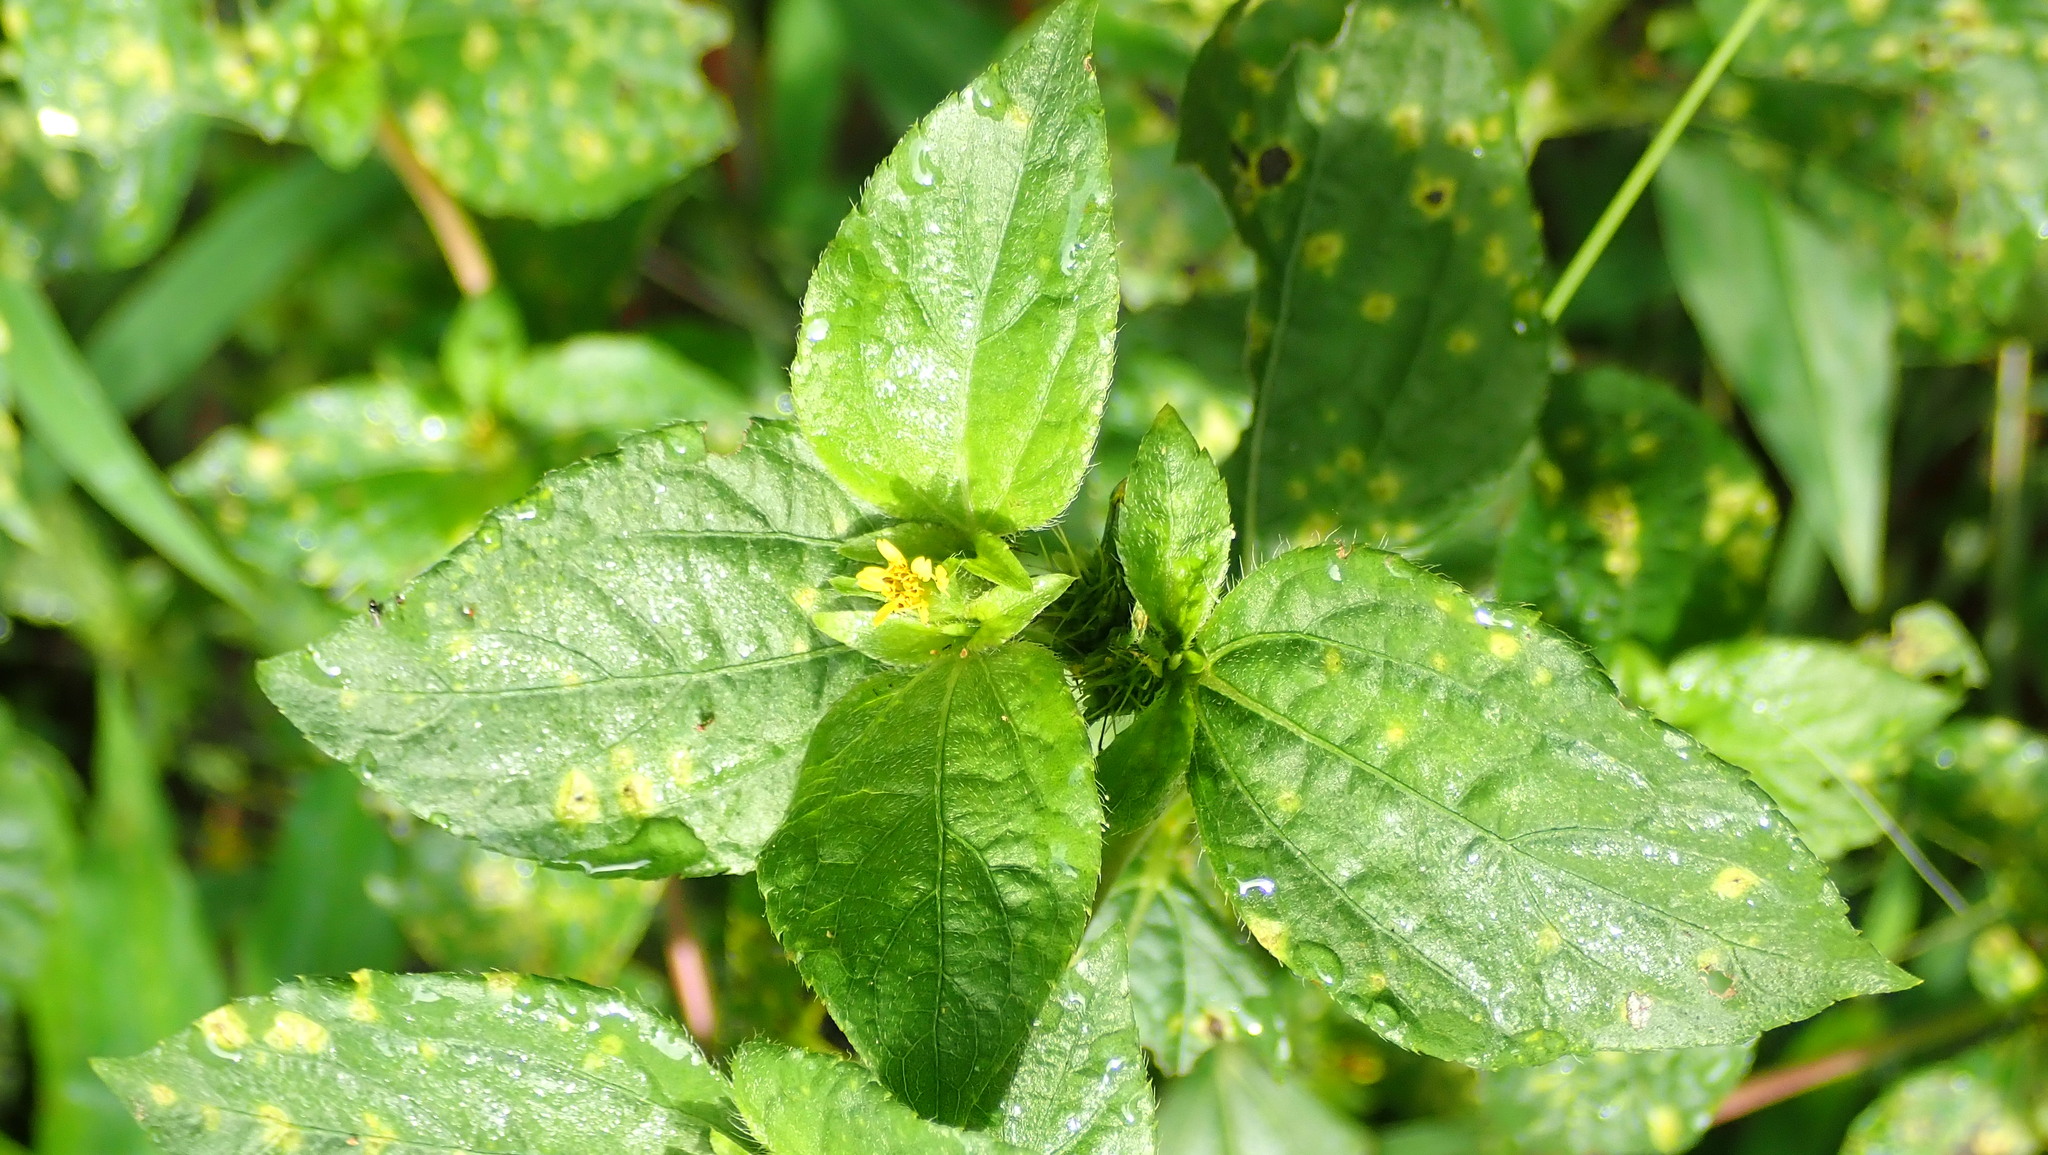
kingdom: Plantae
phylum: Tracheophyta
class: Magnoliopsida
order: Asterales
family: Asteraceae
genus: Synedrella
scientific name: Synedrella nodiflora
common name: Nodeweed
